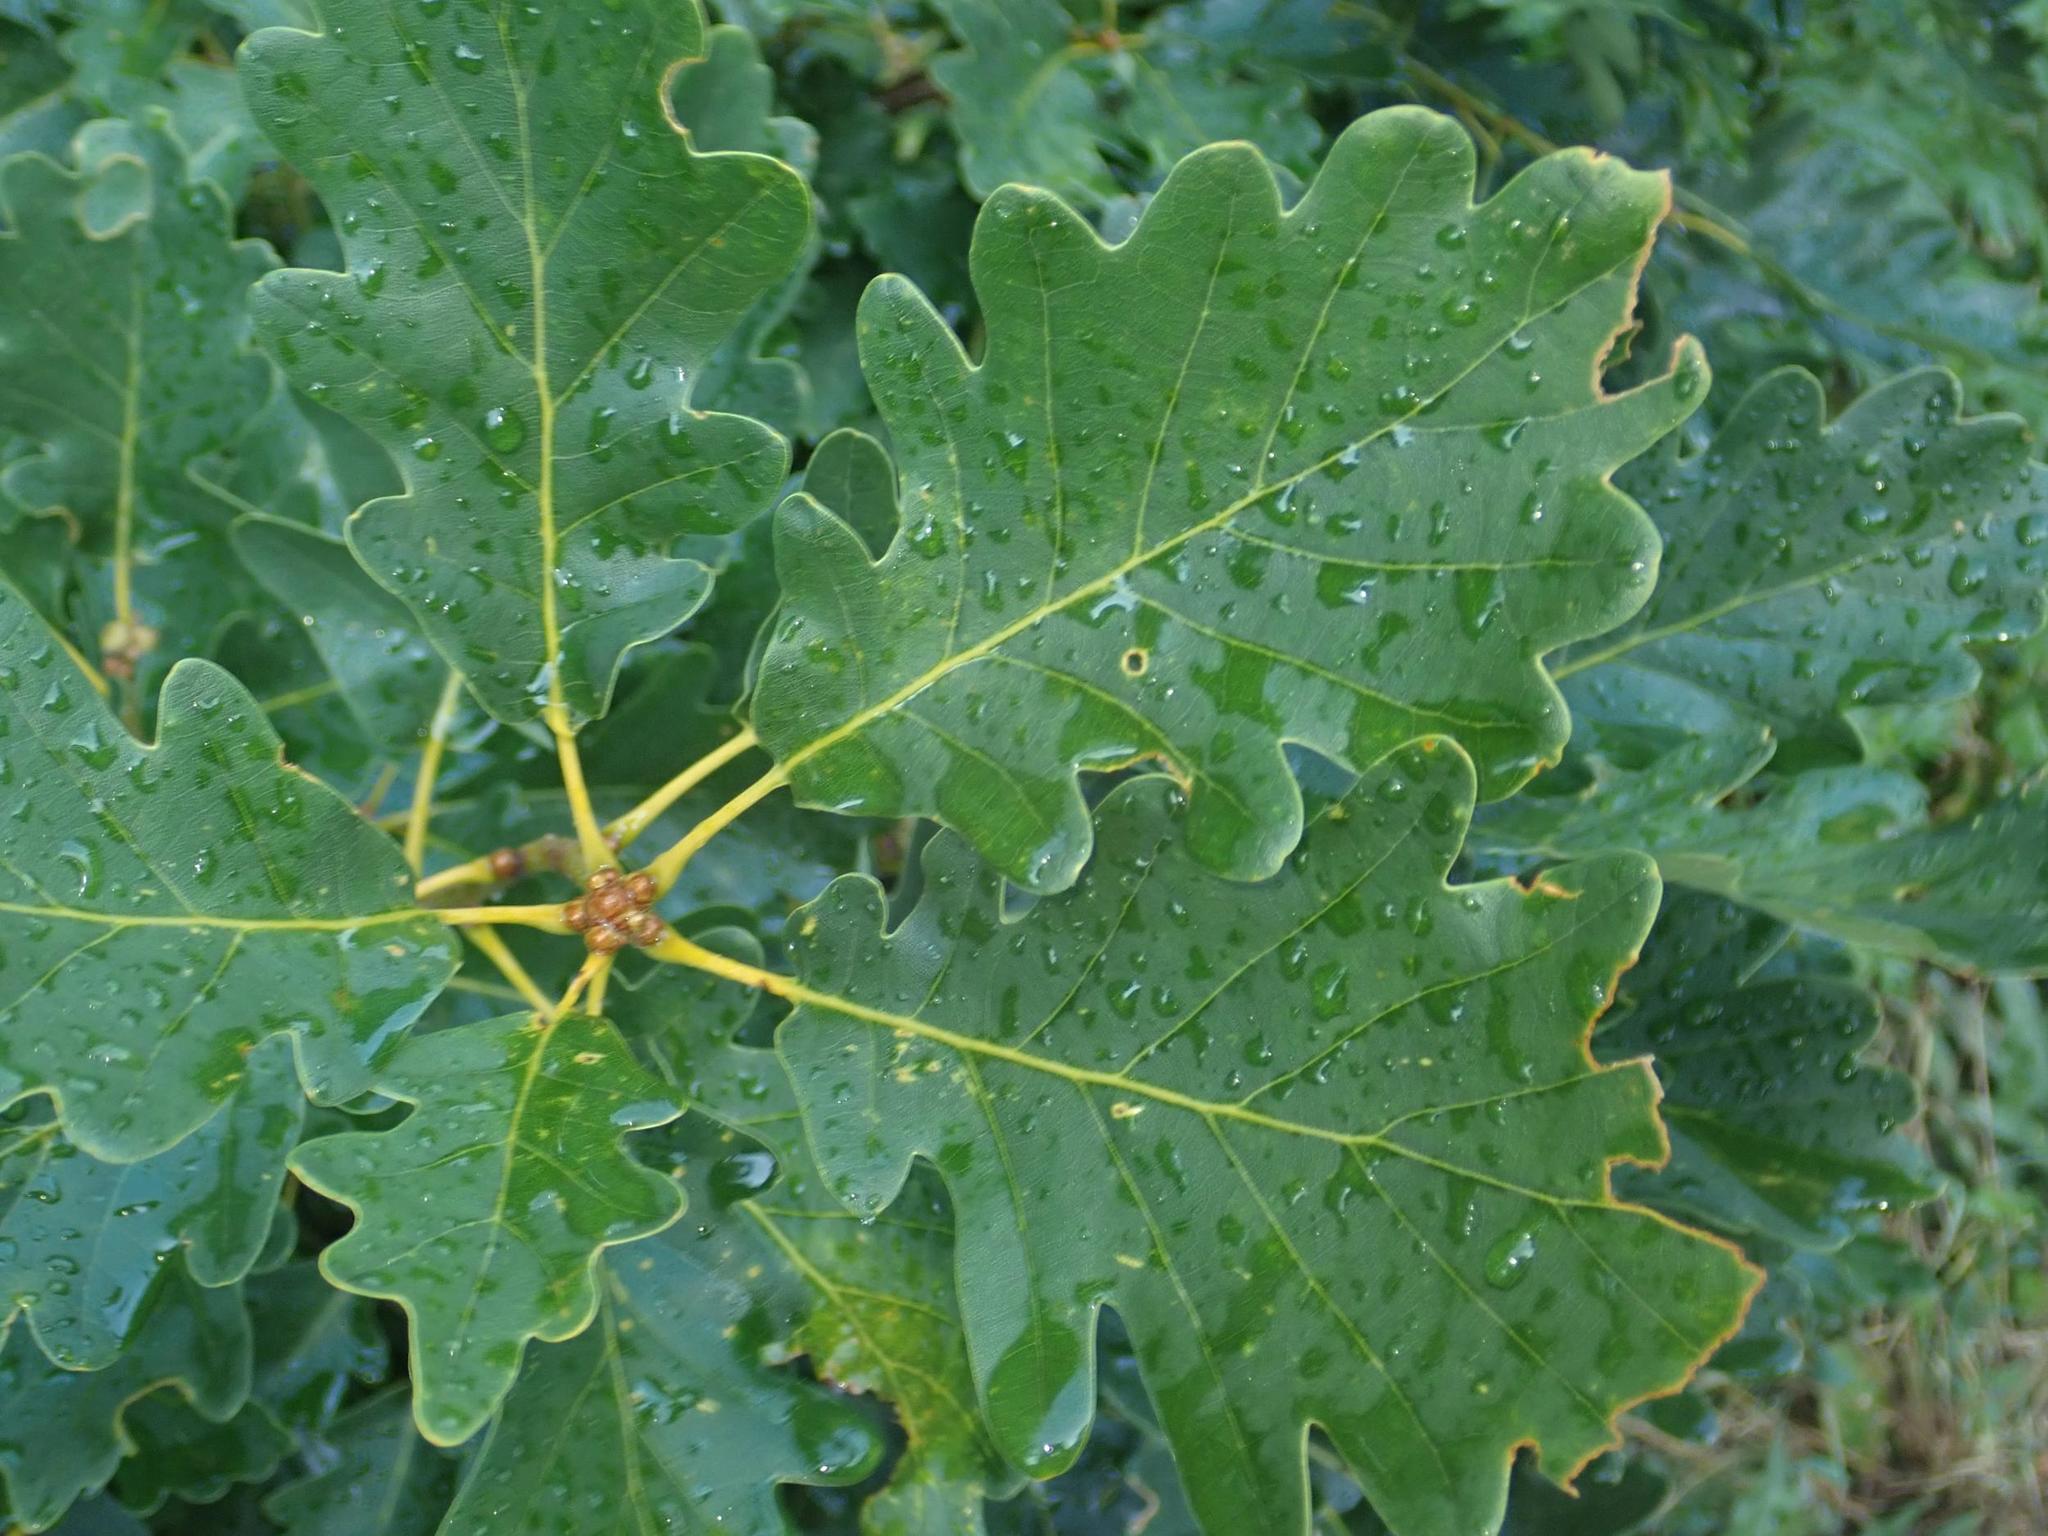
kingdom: Plantae
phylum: Tracheophyta
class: Magnoliopsida
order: Fagales
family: Fagaceae
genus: Quercus
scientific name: Quercus petraea
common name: Sessile oak
